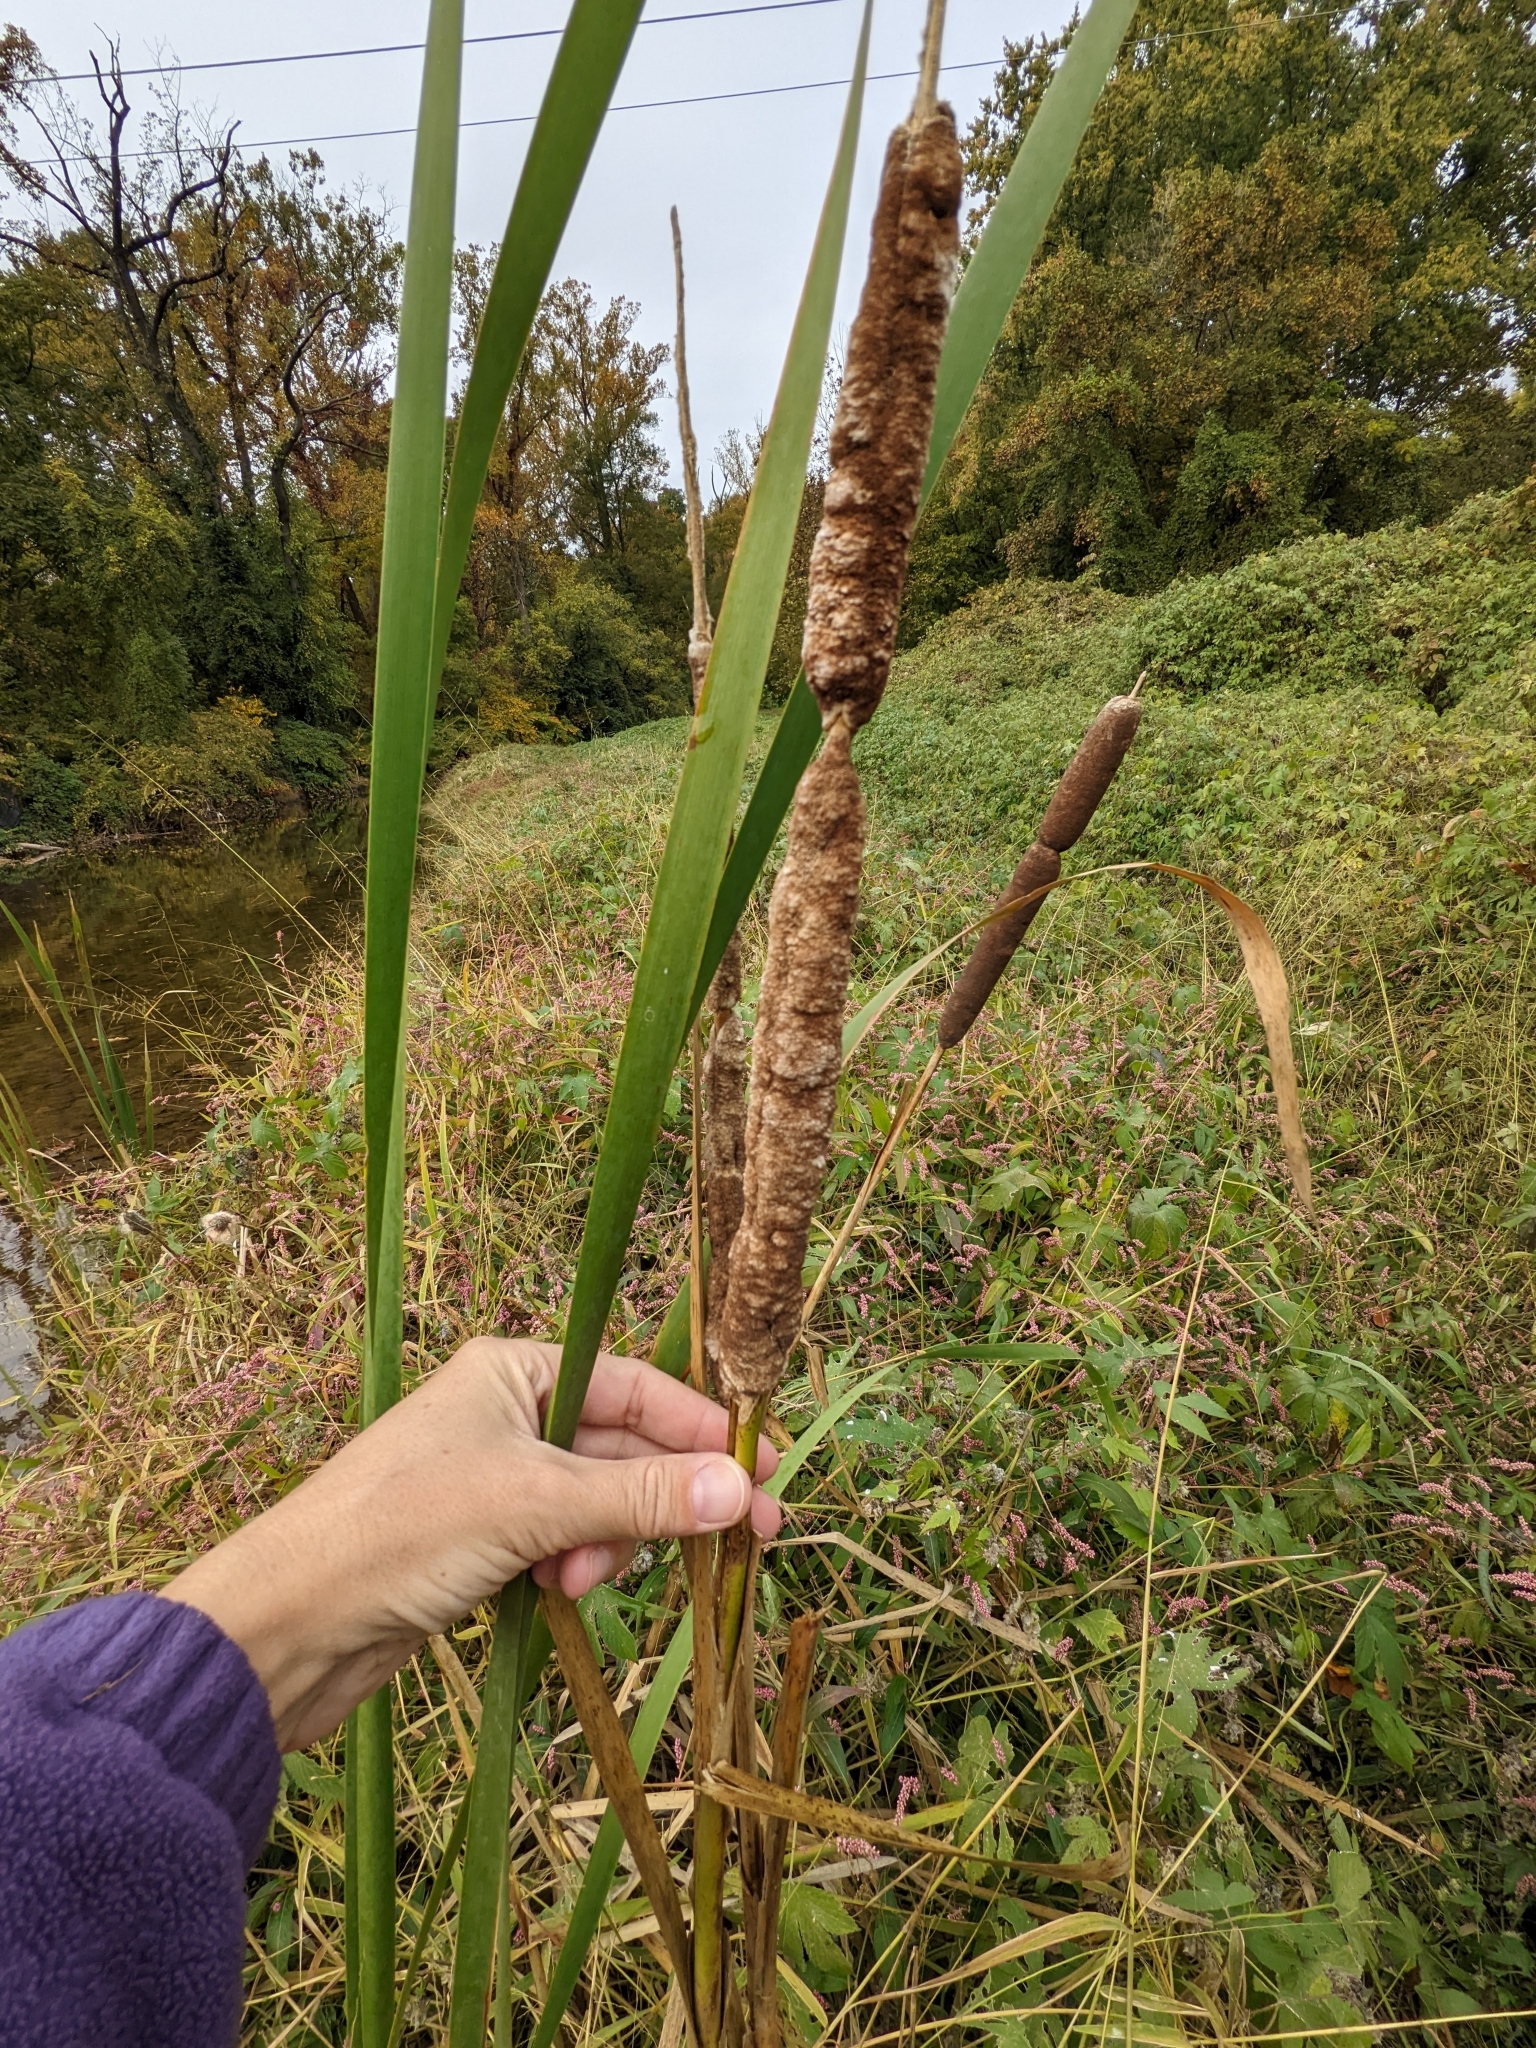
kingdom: Plantae
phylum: Tracheophyta
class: Liliopsida
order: Poales
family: Typhaceae
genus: Typha
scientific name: Typha latifolia
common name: Broadleaf cattail
